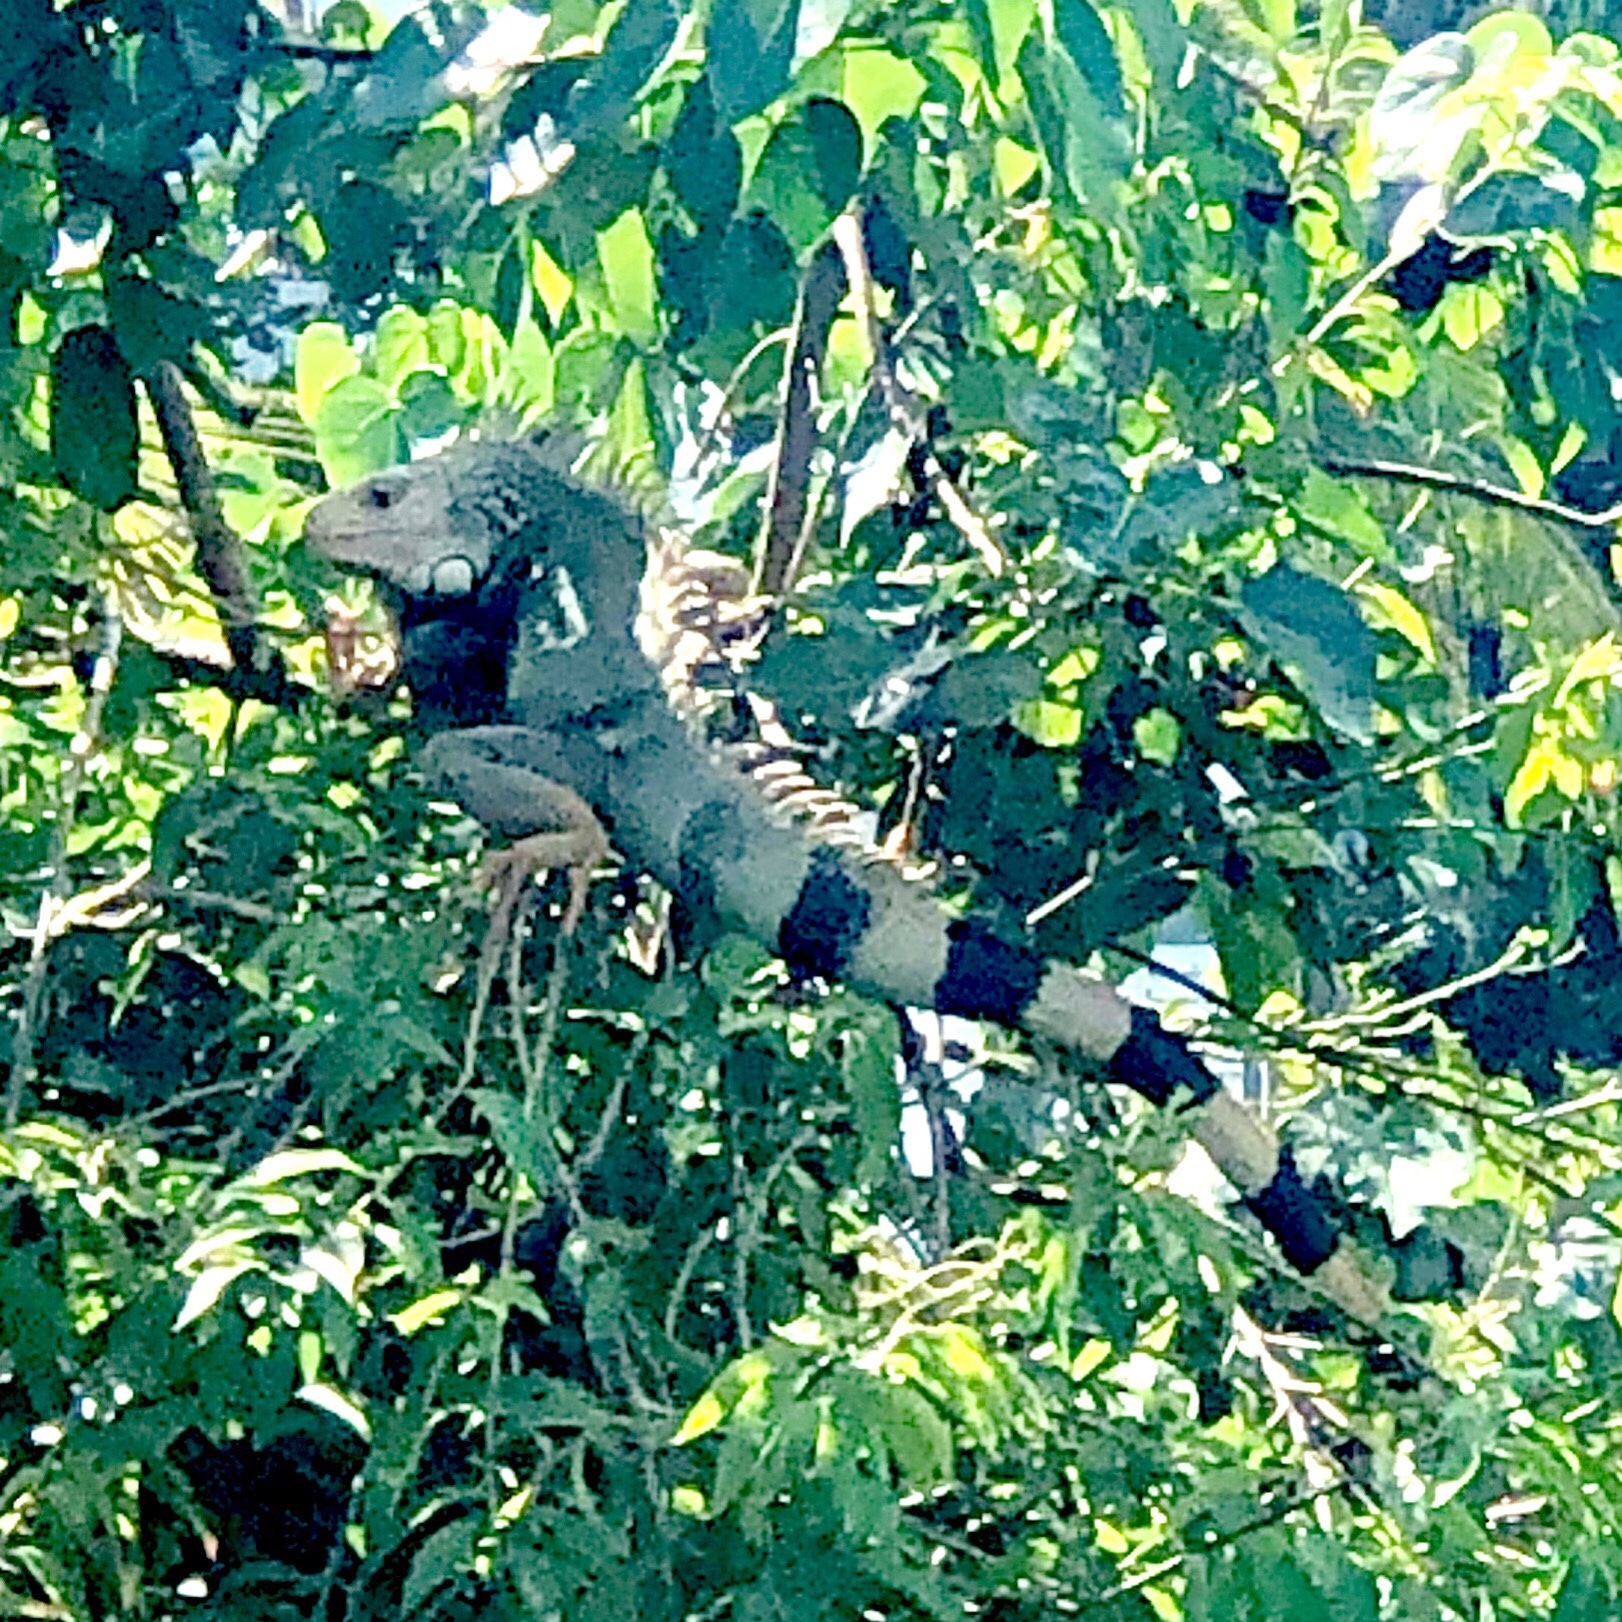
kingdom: Animalia
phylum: Chordata
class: Squamata
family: Iguanidae
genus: Iguana
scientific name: Iguana iguana
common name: Green iguana
